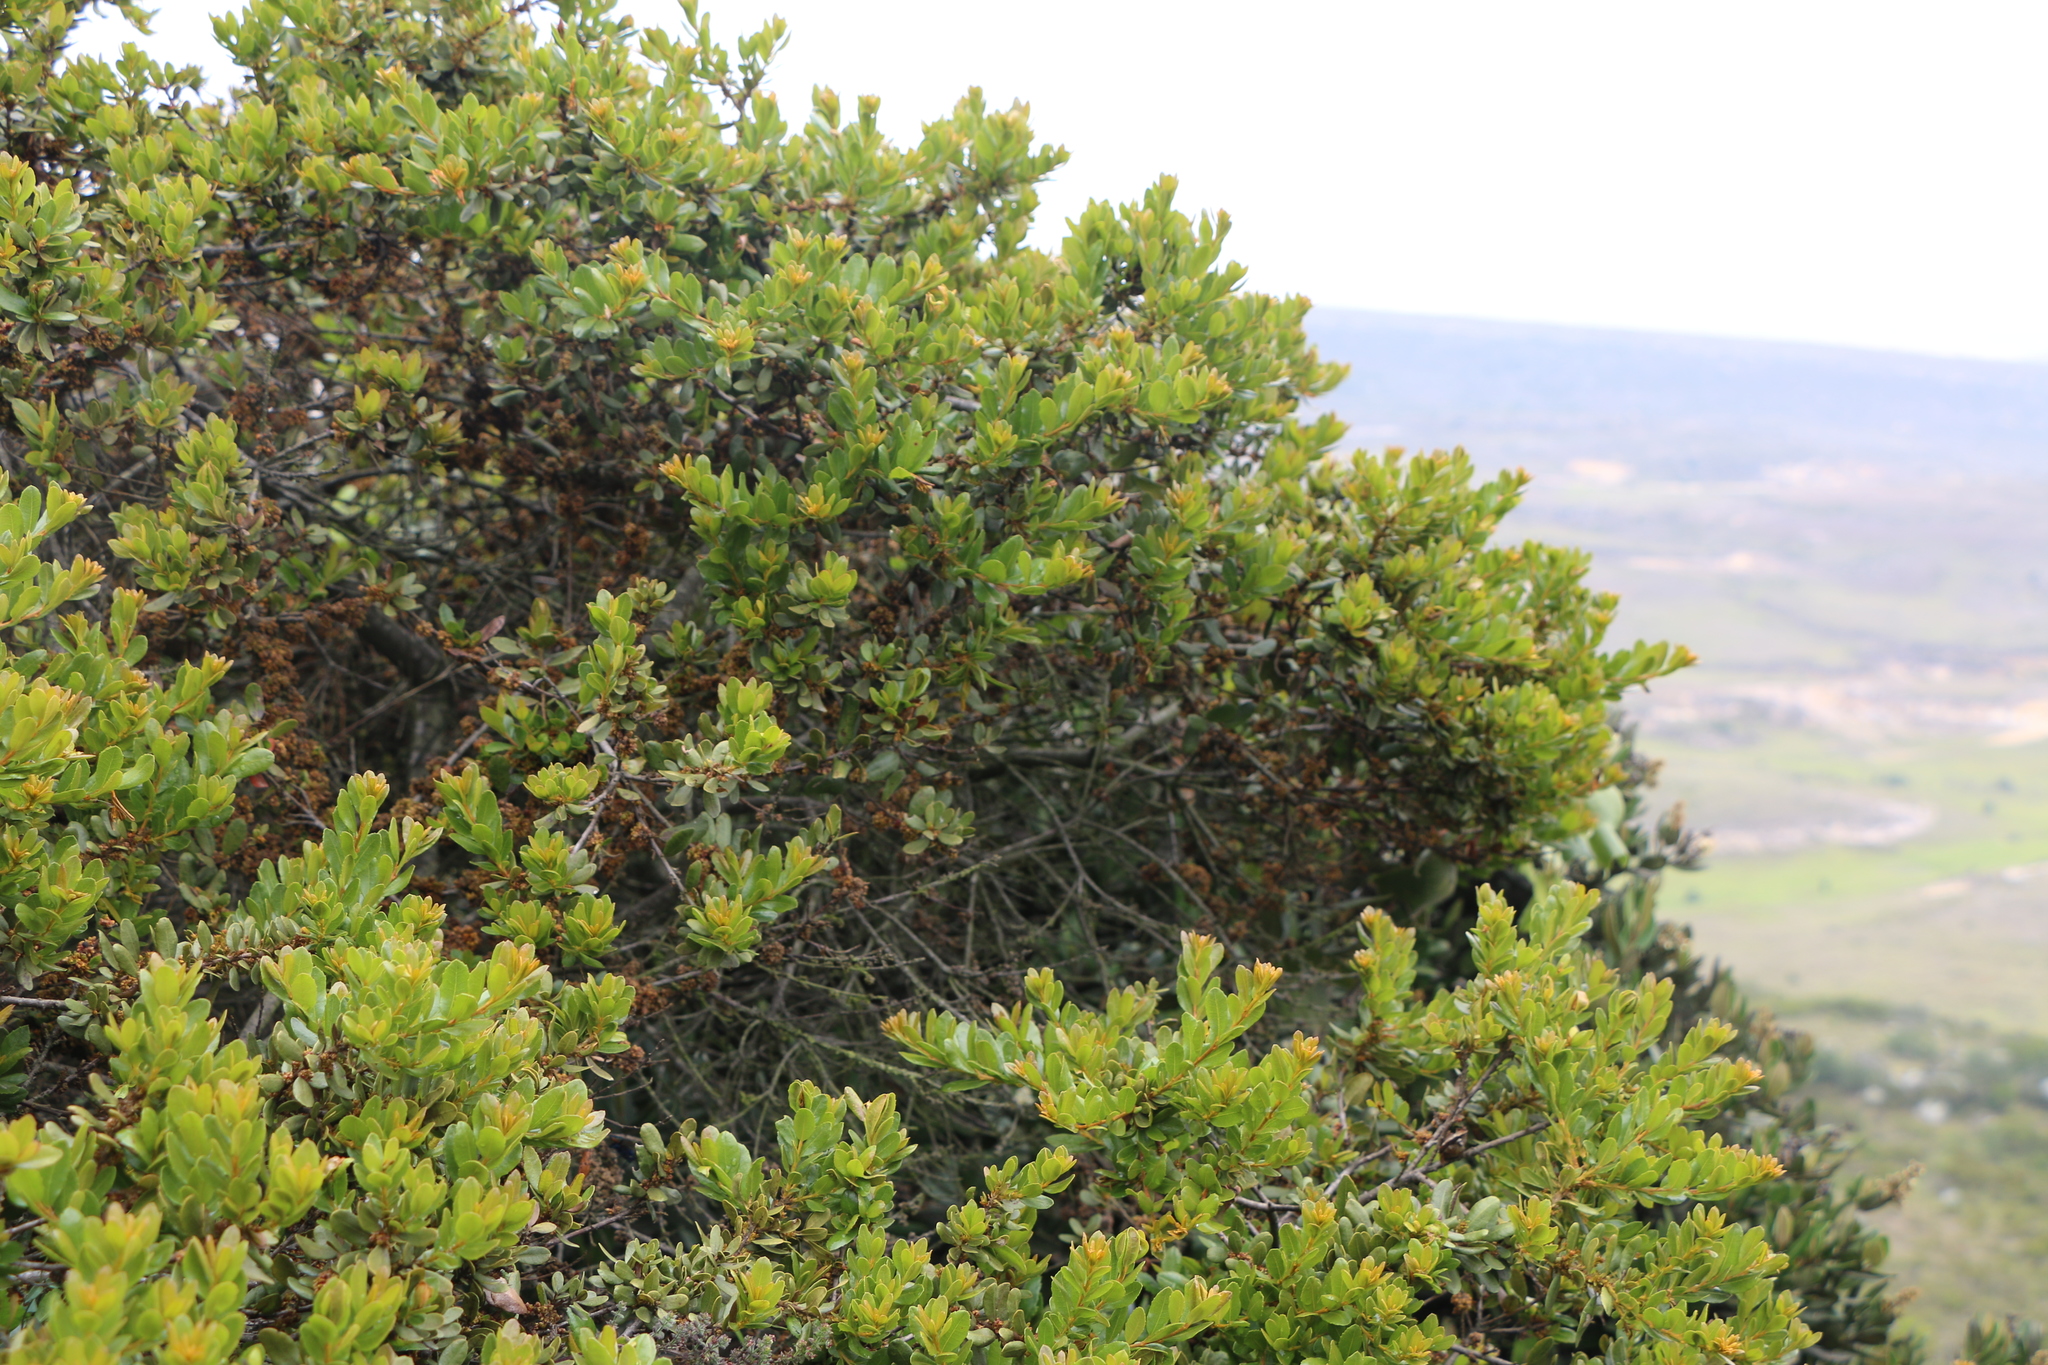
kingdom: Plantae
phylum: Tracheophyta
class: Magnoliopsida
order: Fagales
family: Myricaceae
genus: Morella
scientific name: Morella parvifolia
